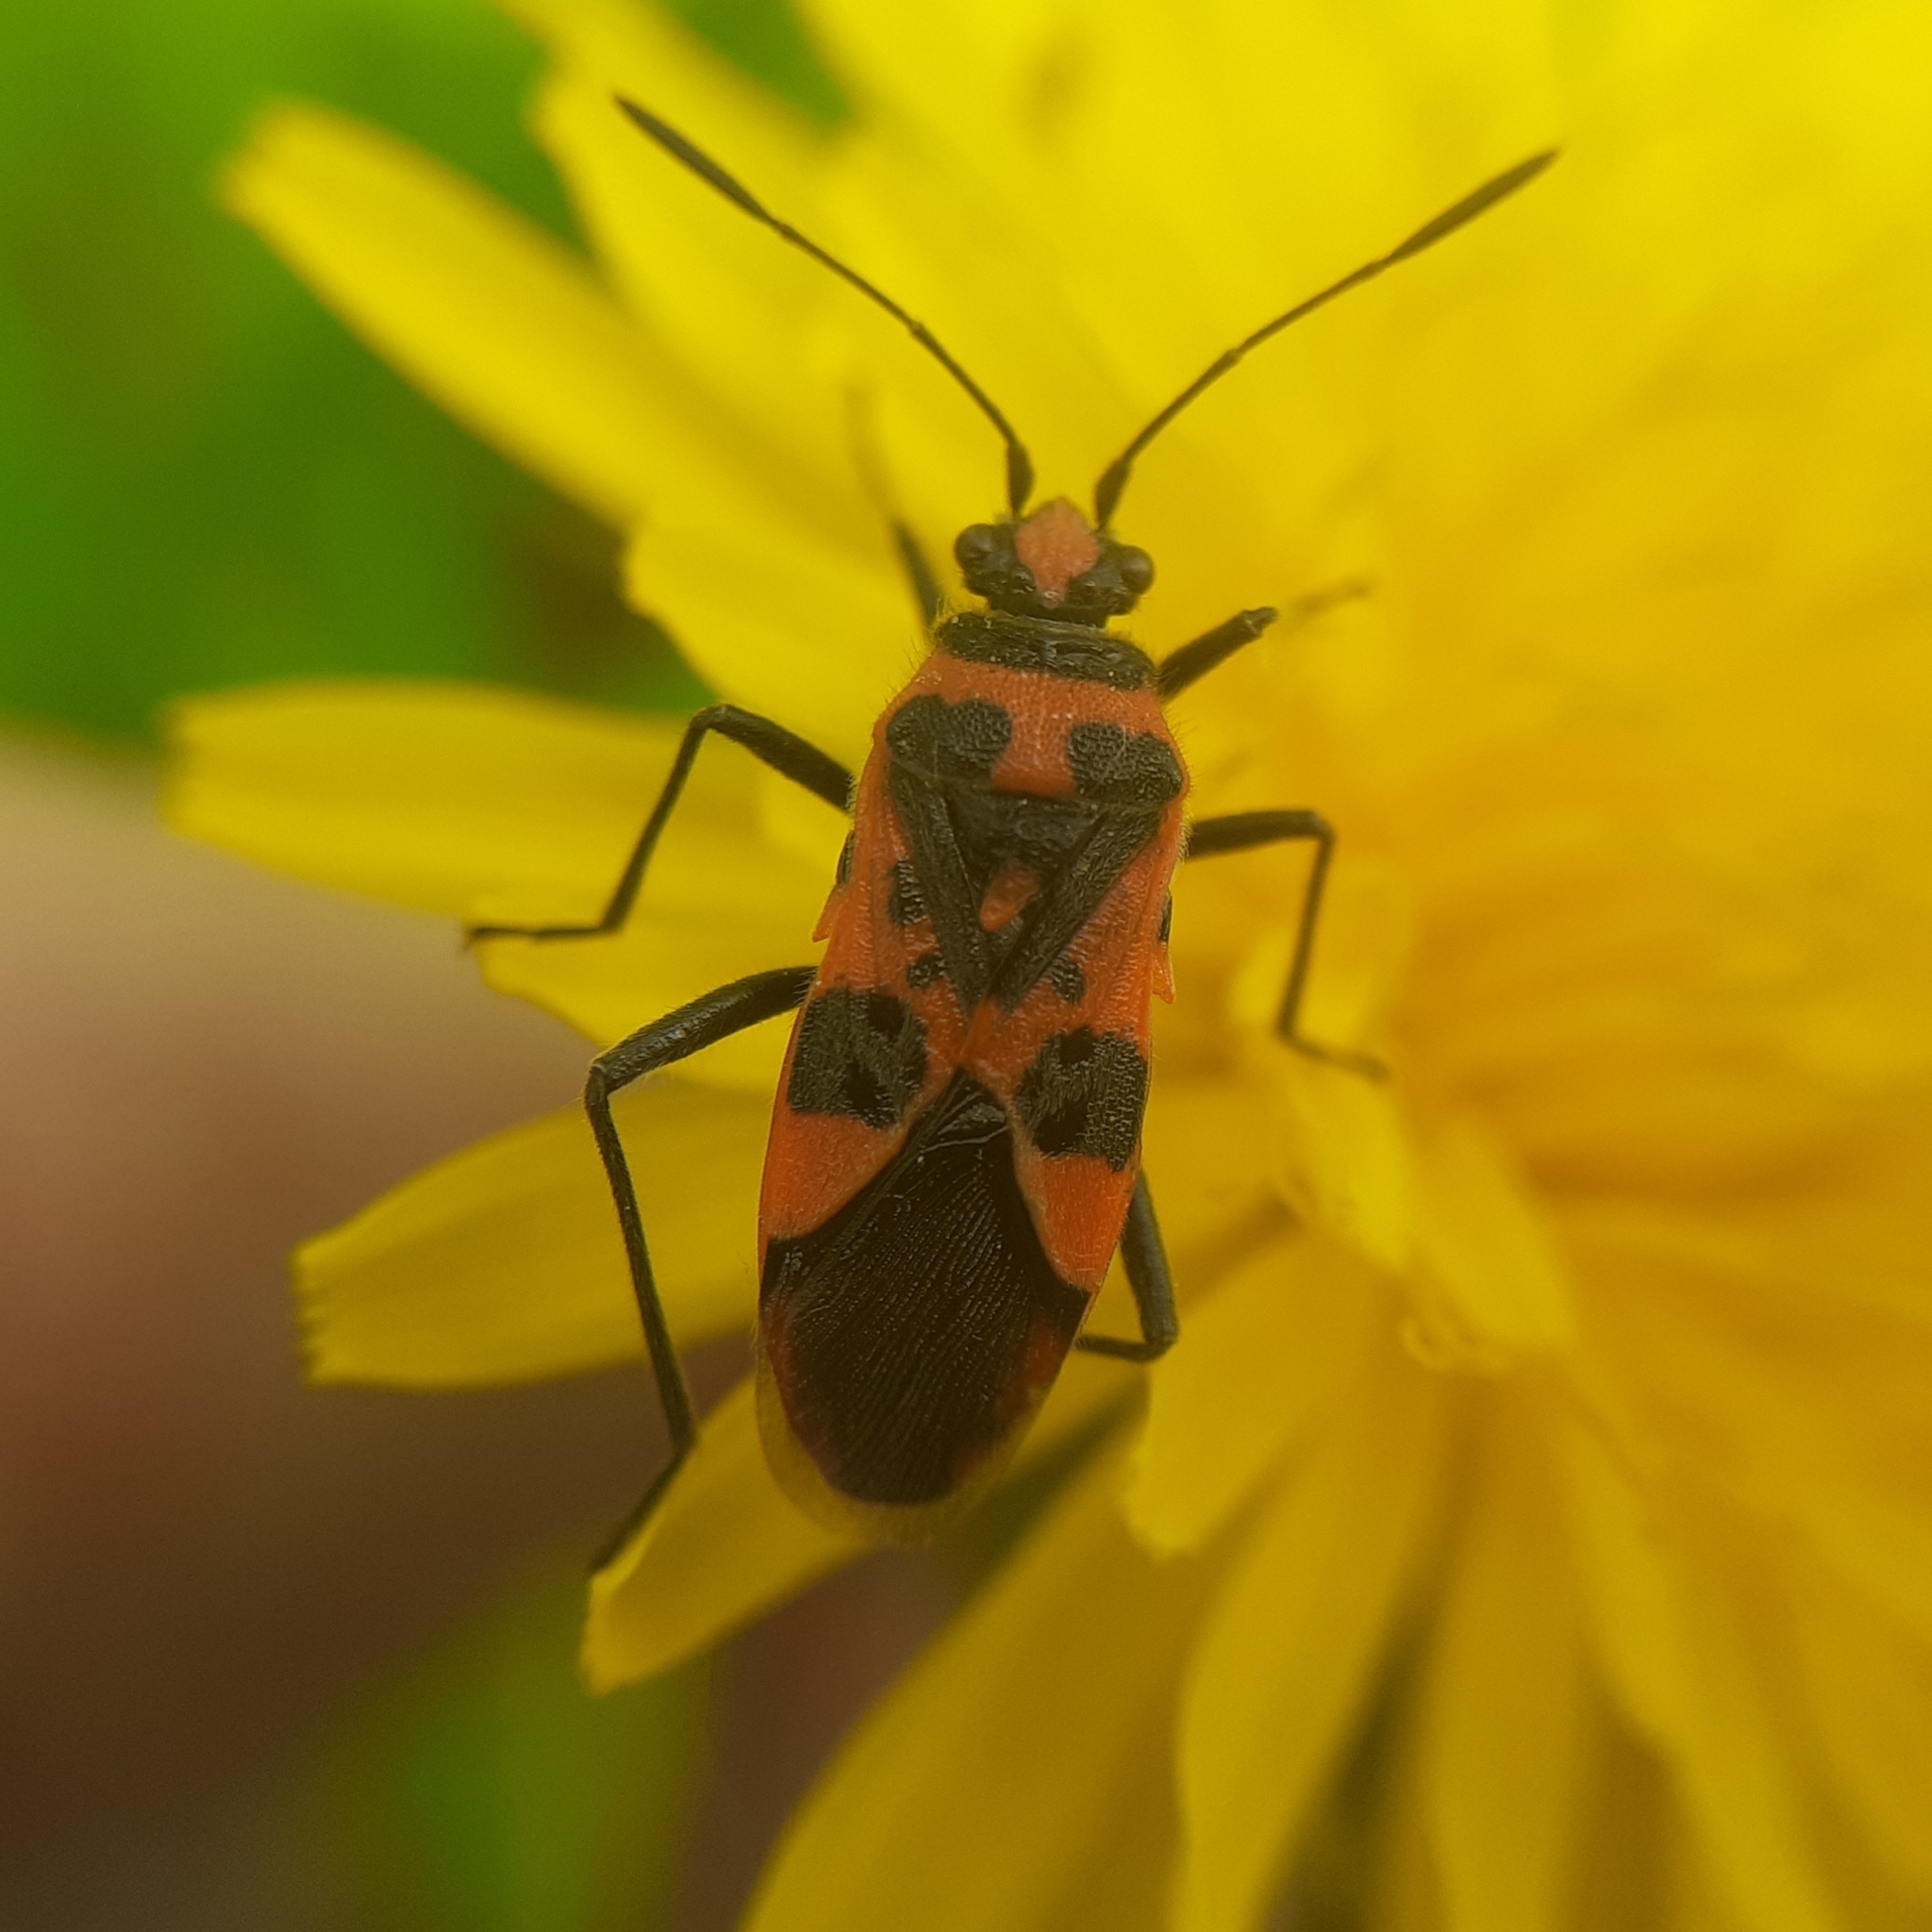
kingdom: Animalia
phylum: Arthropoda
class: Insecta
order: Hemiptera
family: Rhopalidae
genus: Corizus
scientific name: Corizus hyoscyami
